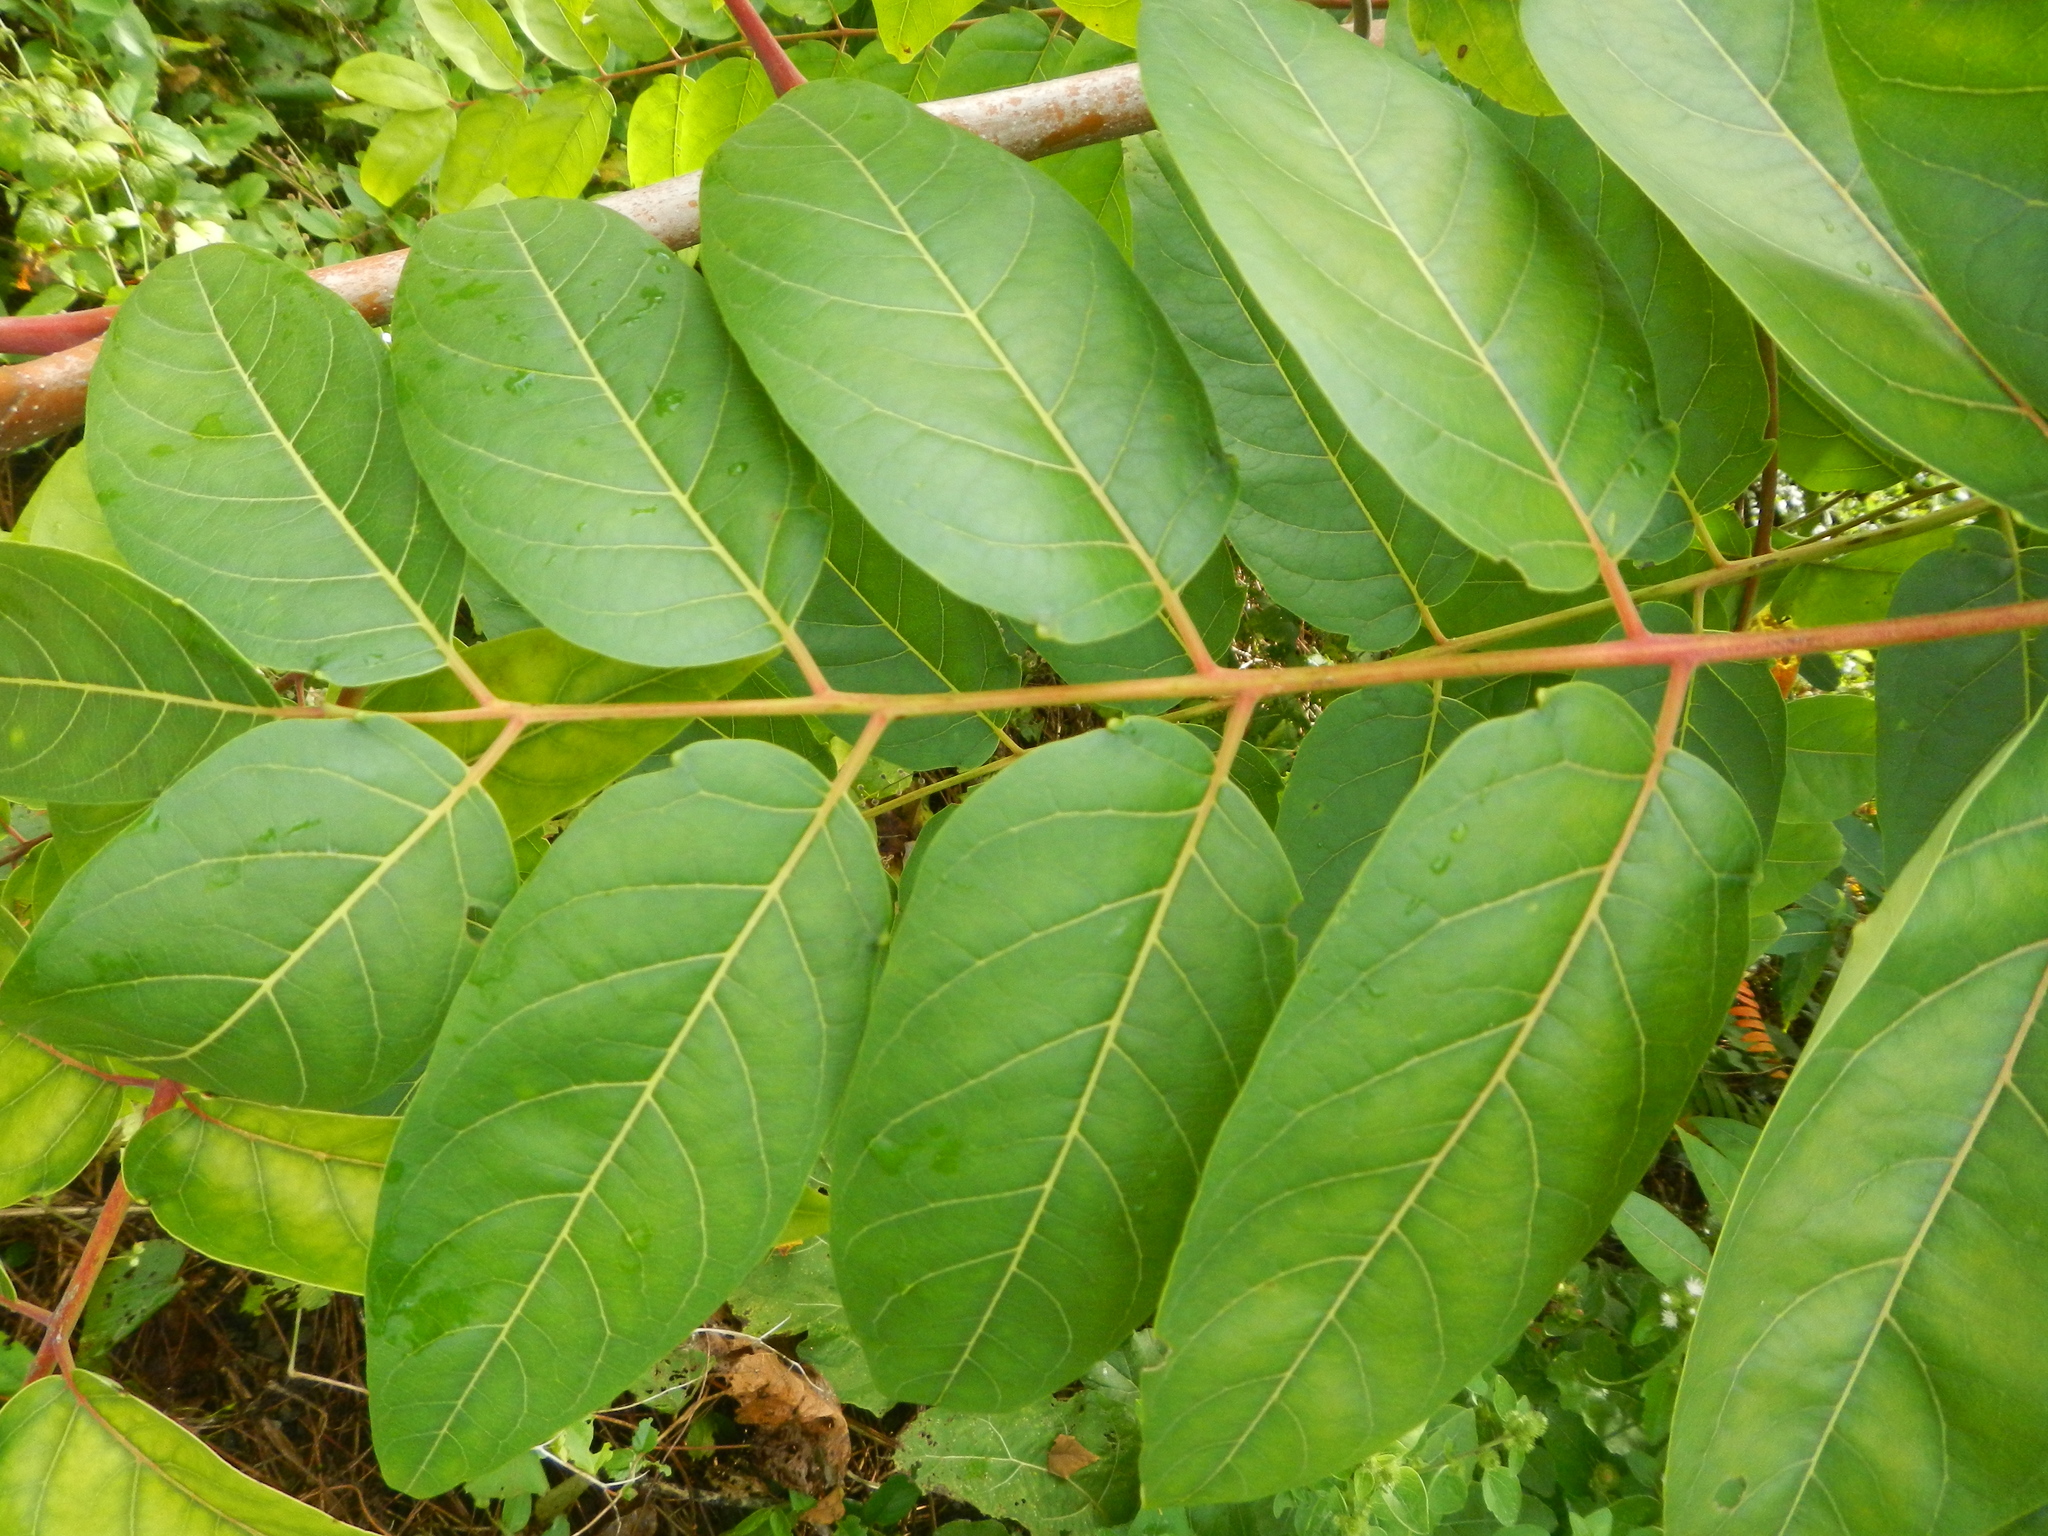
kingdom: Plantae
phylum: Tracheophyta
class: Magnoliopsida
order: Sapindales
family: Simaroubaceae
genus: Ailanthus
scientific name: Ailanthus altissima
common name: Tree-of-heaven
